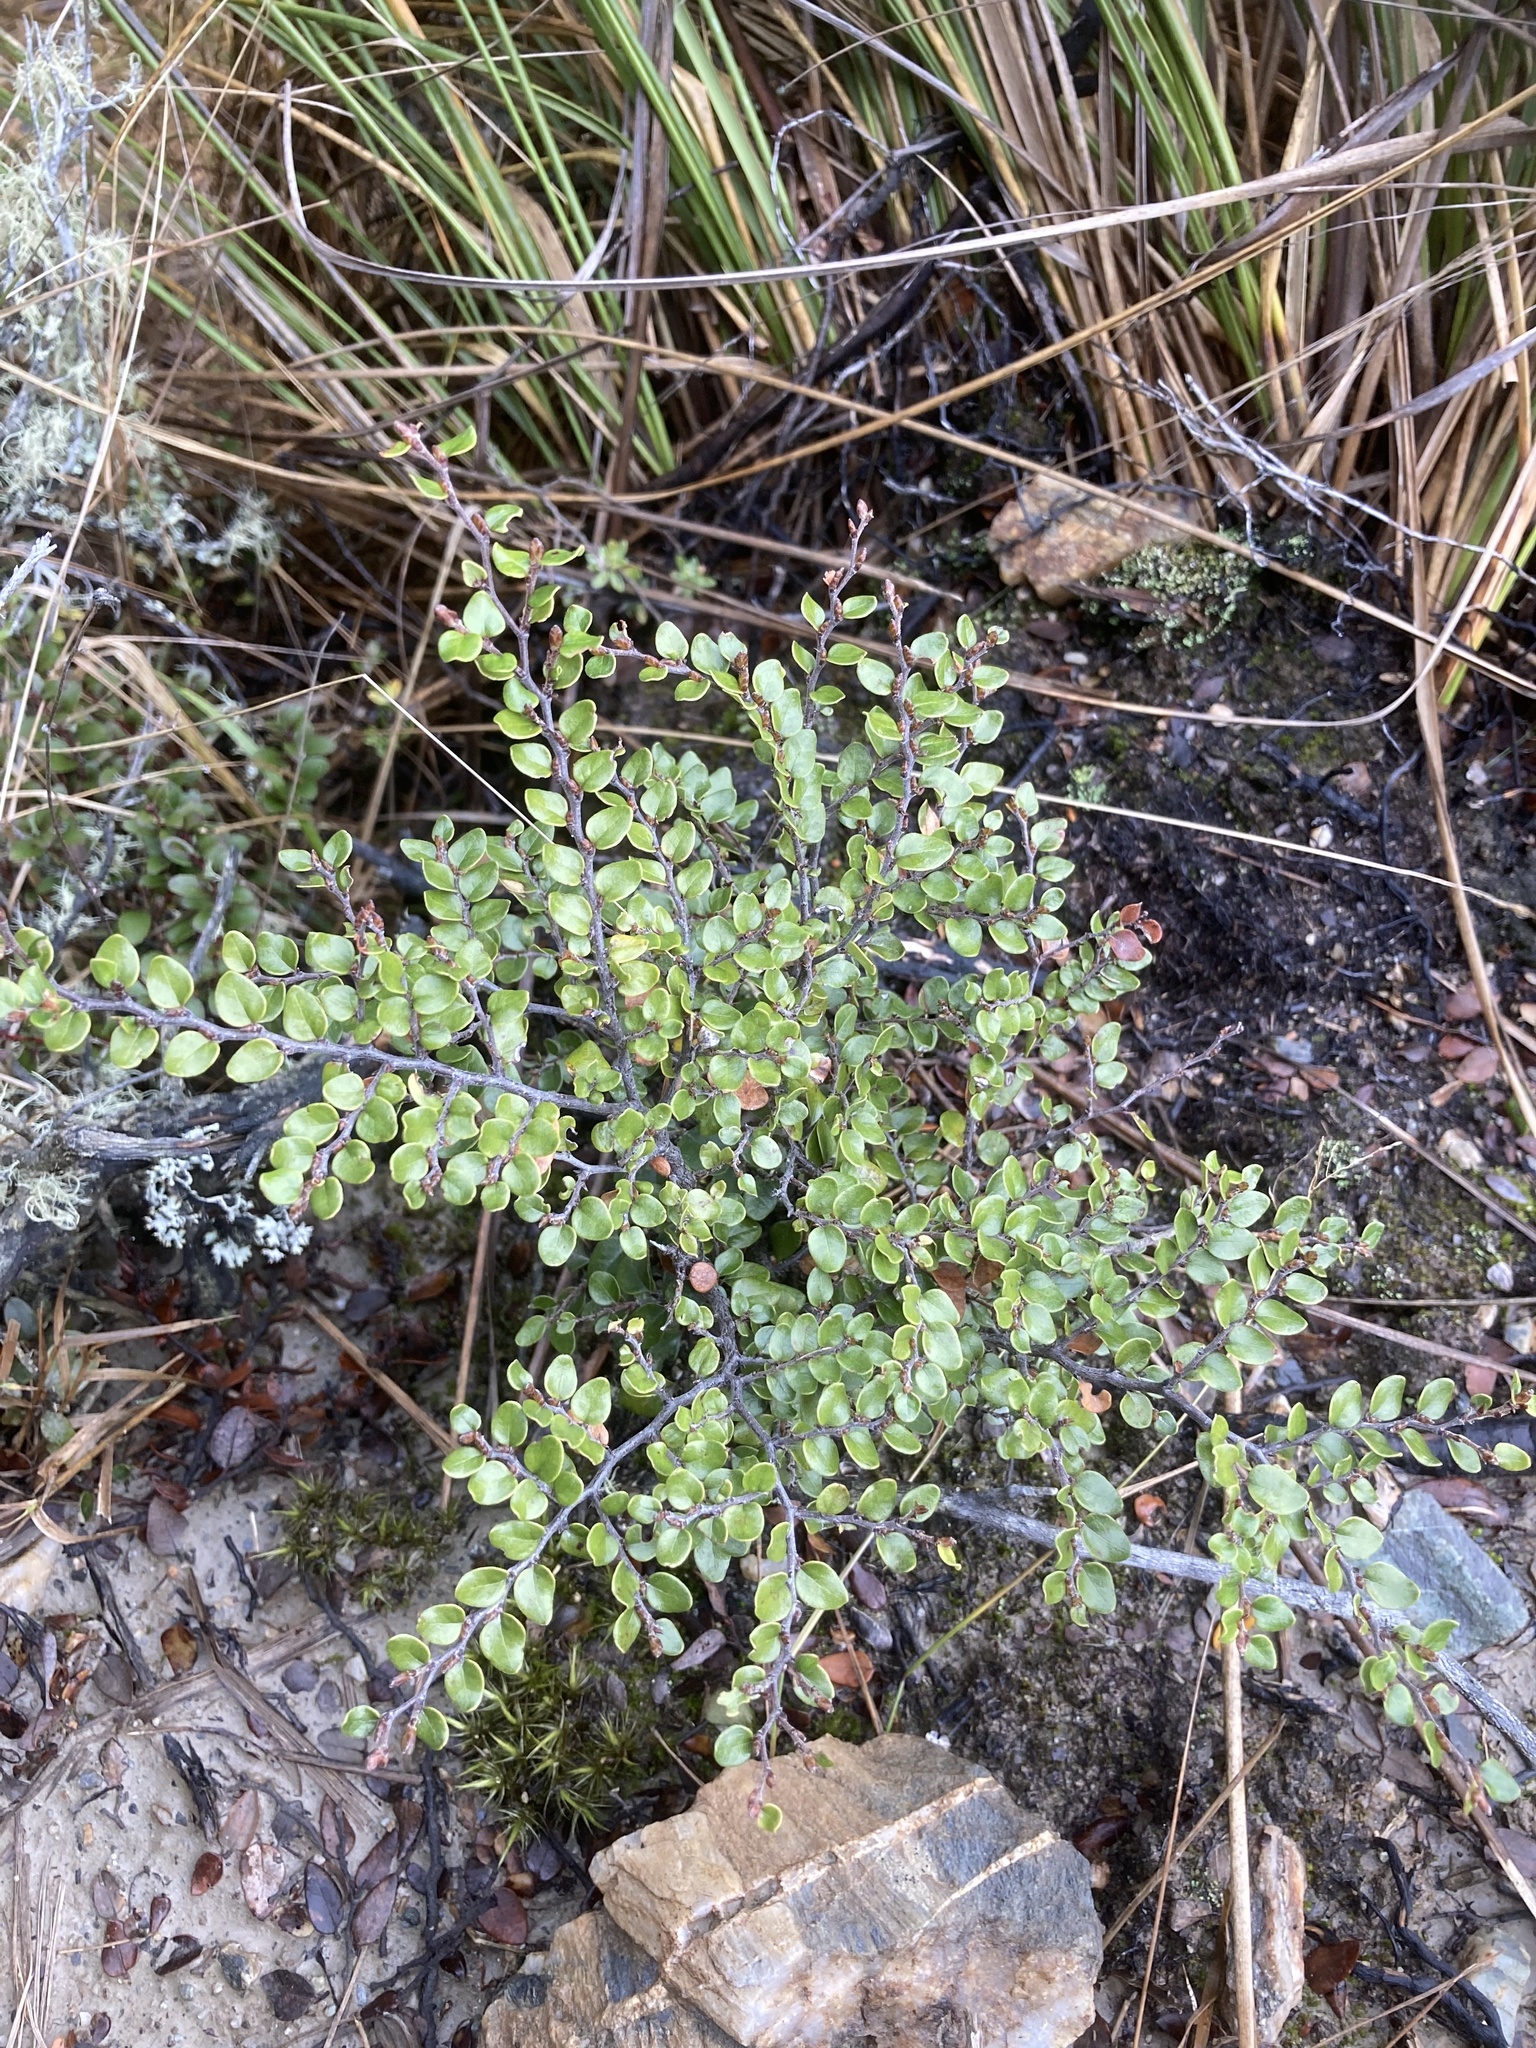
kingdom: Plantae
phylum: Tracheophyta
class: Magnoliopsida
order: Fagales
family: Nothofagaceae
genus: Nothofagus
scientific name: Nothofagus cliffortioides
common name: Mountain beech
